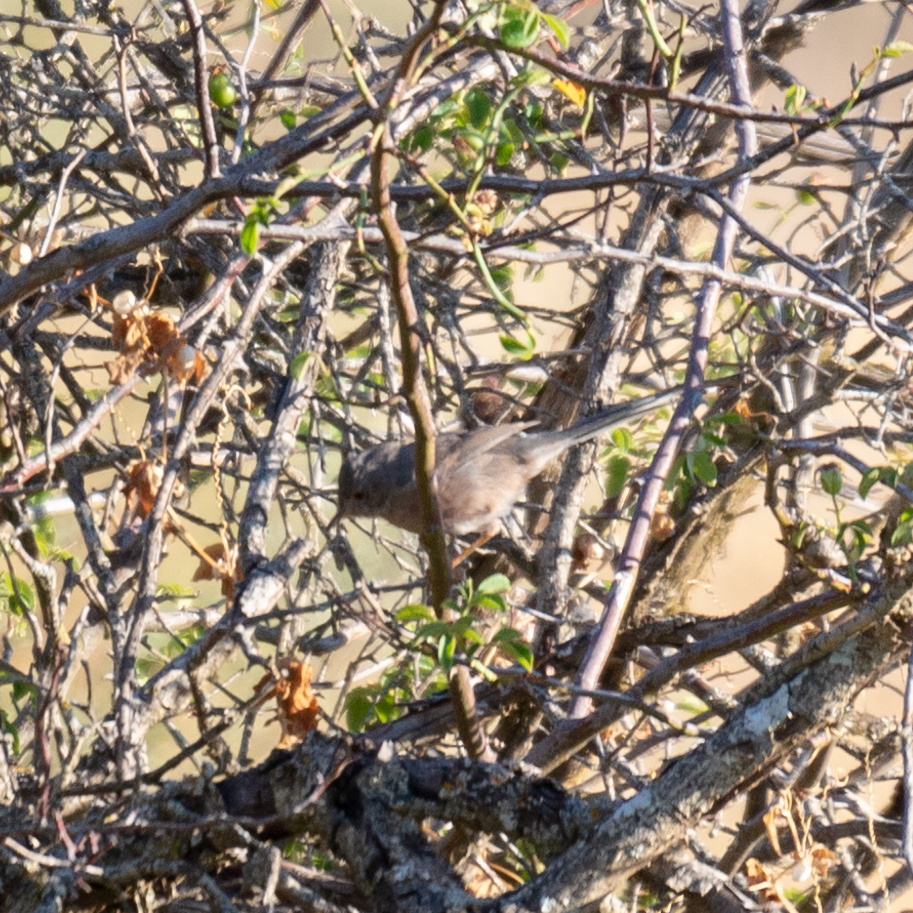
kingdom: Animalia
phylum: Chordata
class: Aves
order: Passeriformes
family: Sylviidae
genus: Sylvia
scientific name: Sylvia undata
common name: Dartford warbler
